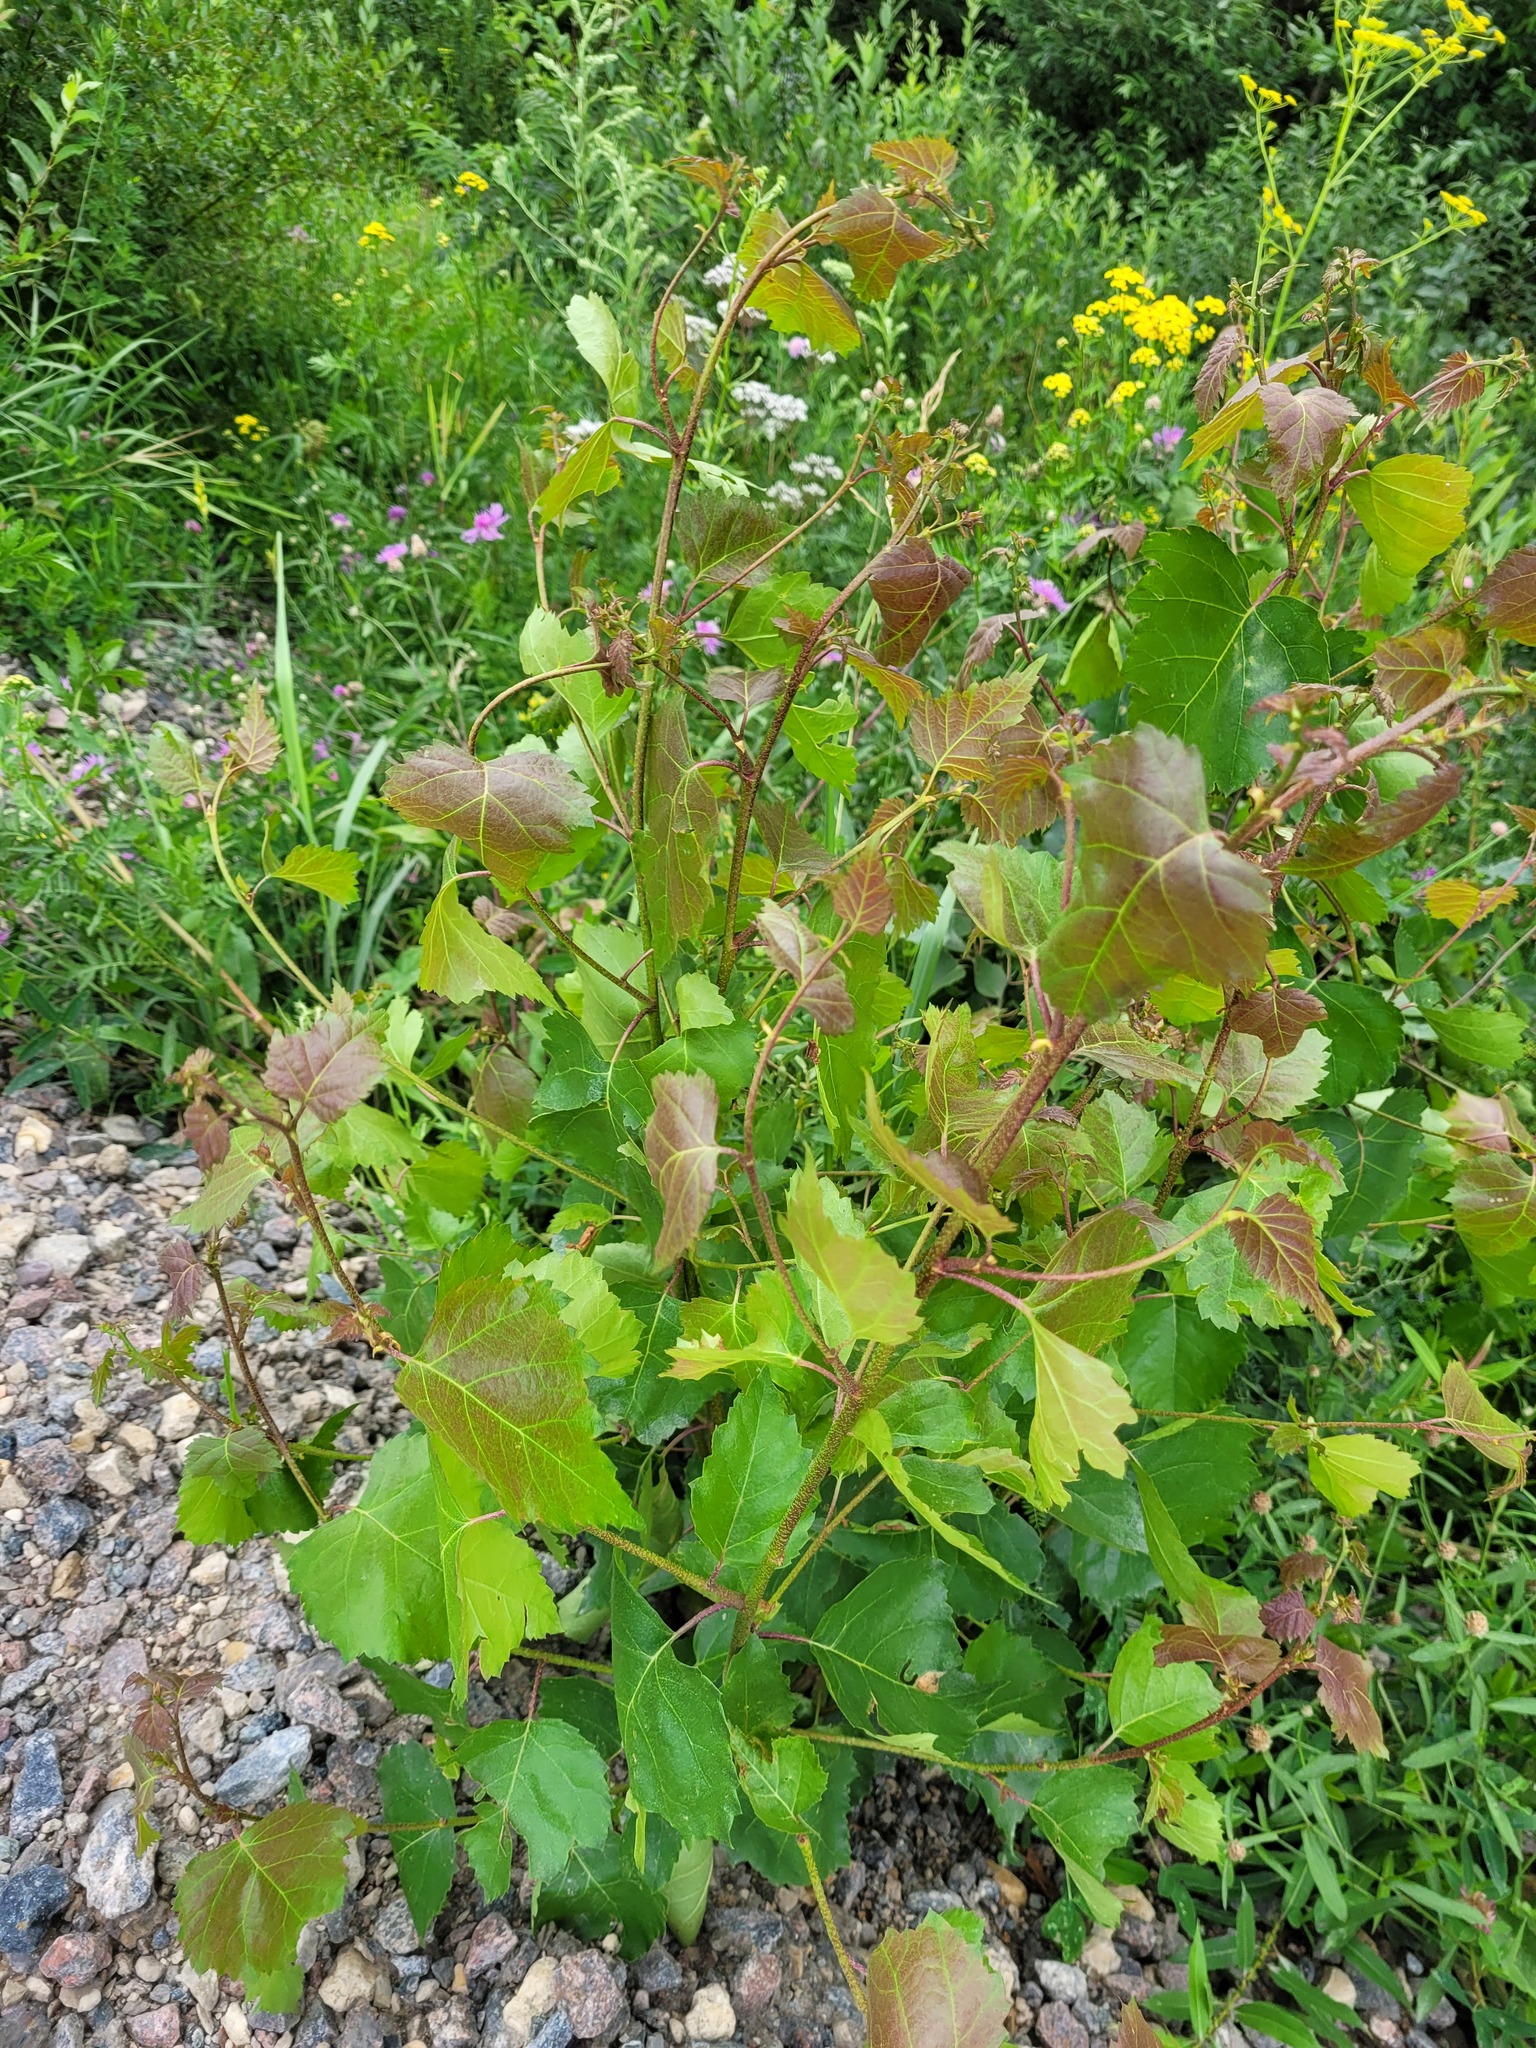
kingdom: Plantae
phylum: Tracheophyta
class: Magnoliopsida
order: Fagales
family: Betulaceae
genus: Betula
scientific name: Betula pendula
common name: Silver birch
